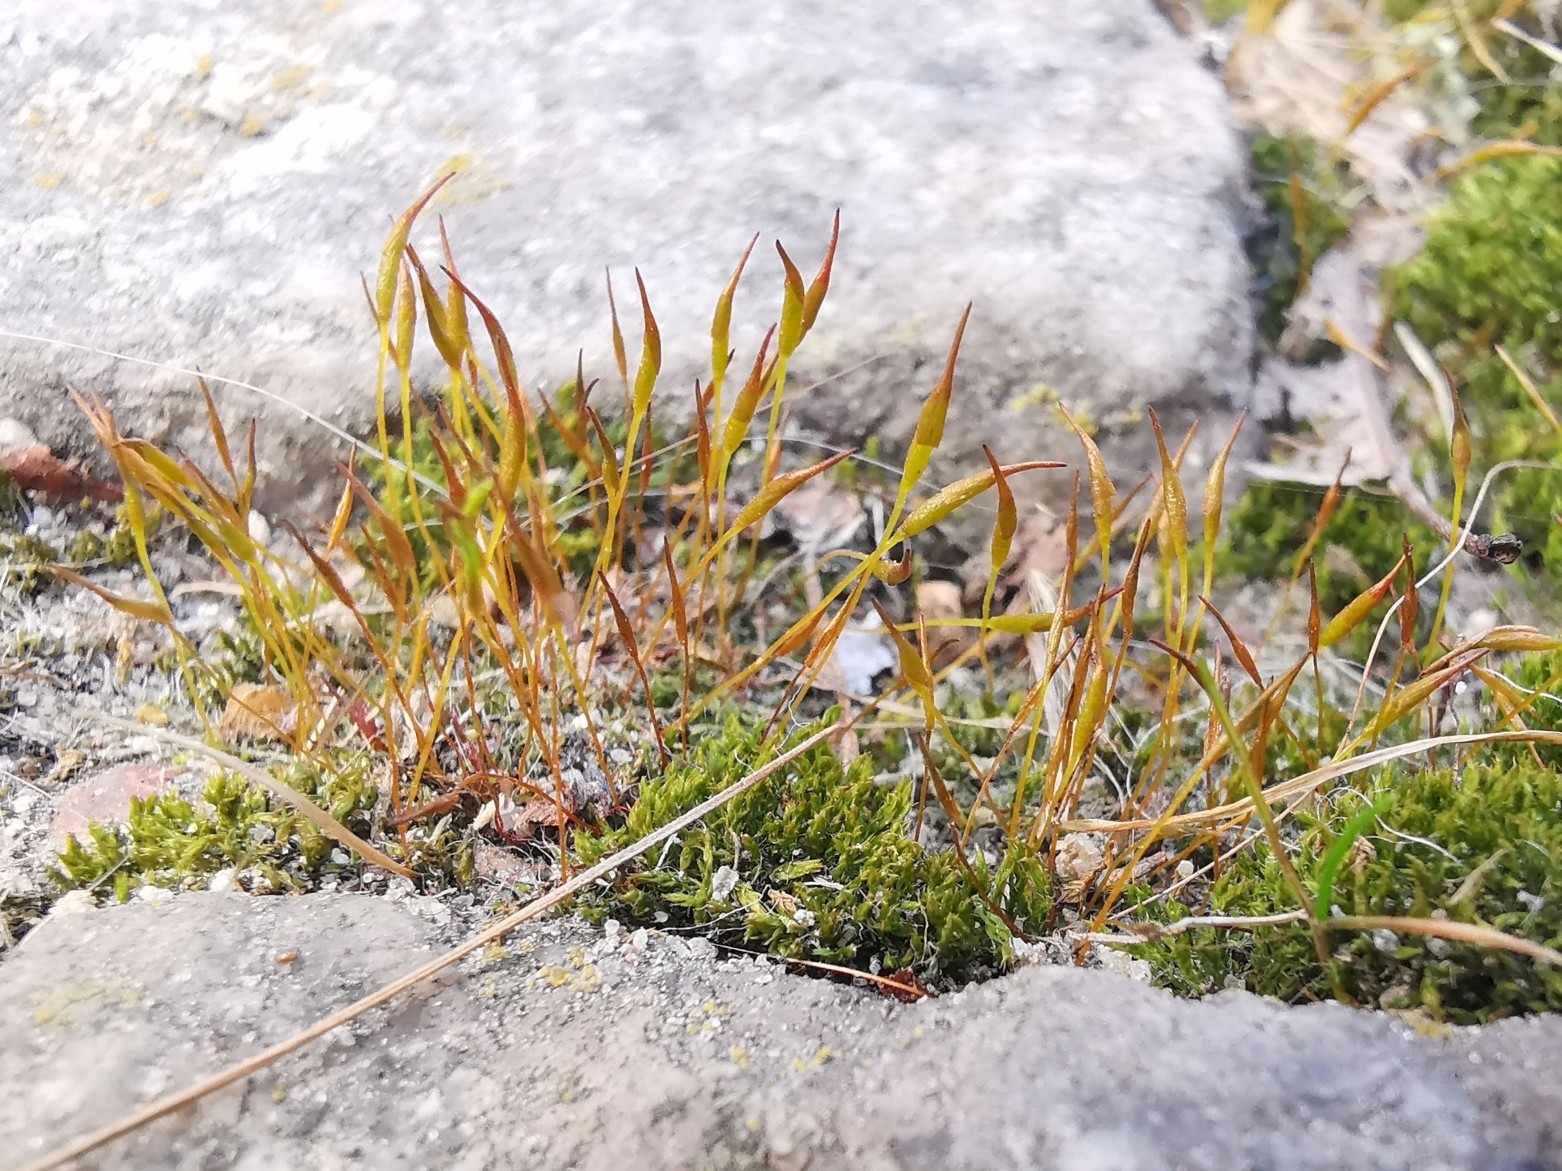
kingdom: Plantae
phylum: Bryophyta
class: Bryopsida
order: Pottiales
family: Pottiaceae
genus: Tortula
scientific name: Tortula muralis
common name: Wall screw-moss
